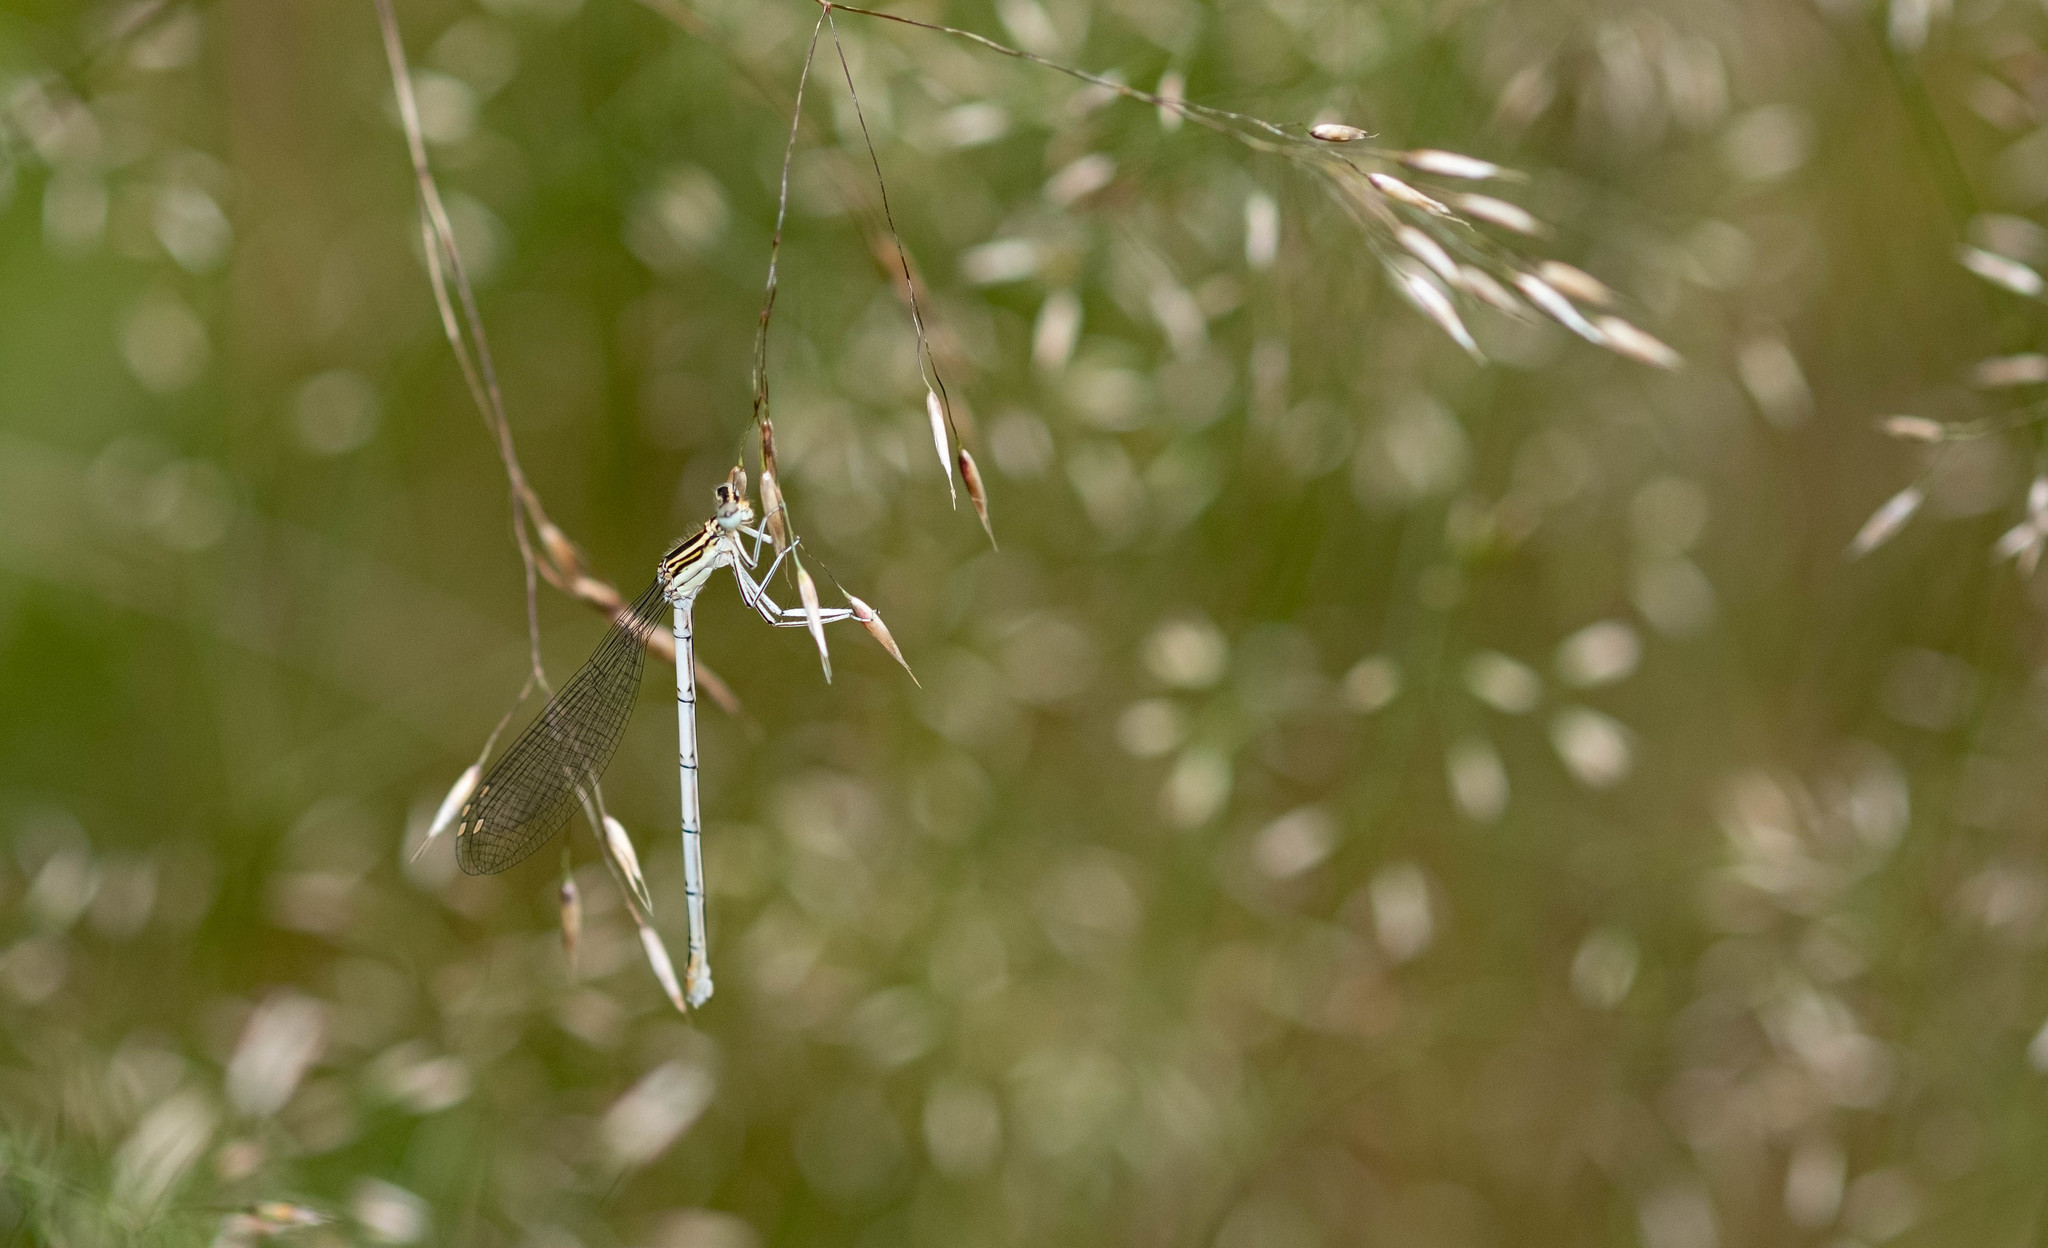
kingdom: Animalia
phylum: Arthropoda
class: Insecta
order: Odonata
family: Platycnemididae
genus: Platycnemis
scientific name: Platycnemis pennipes
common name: White-legged damselfly
